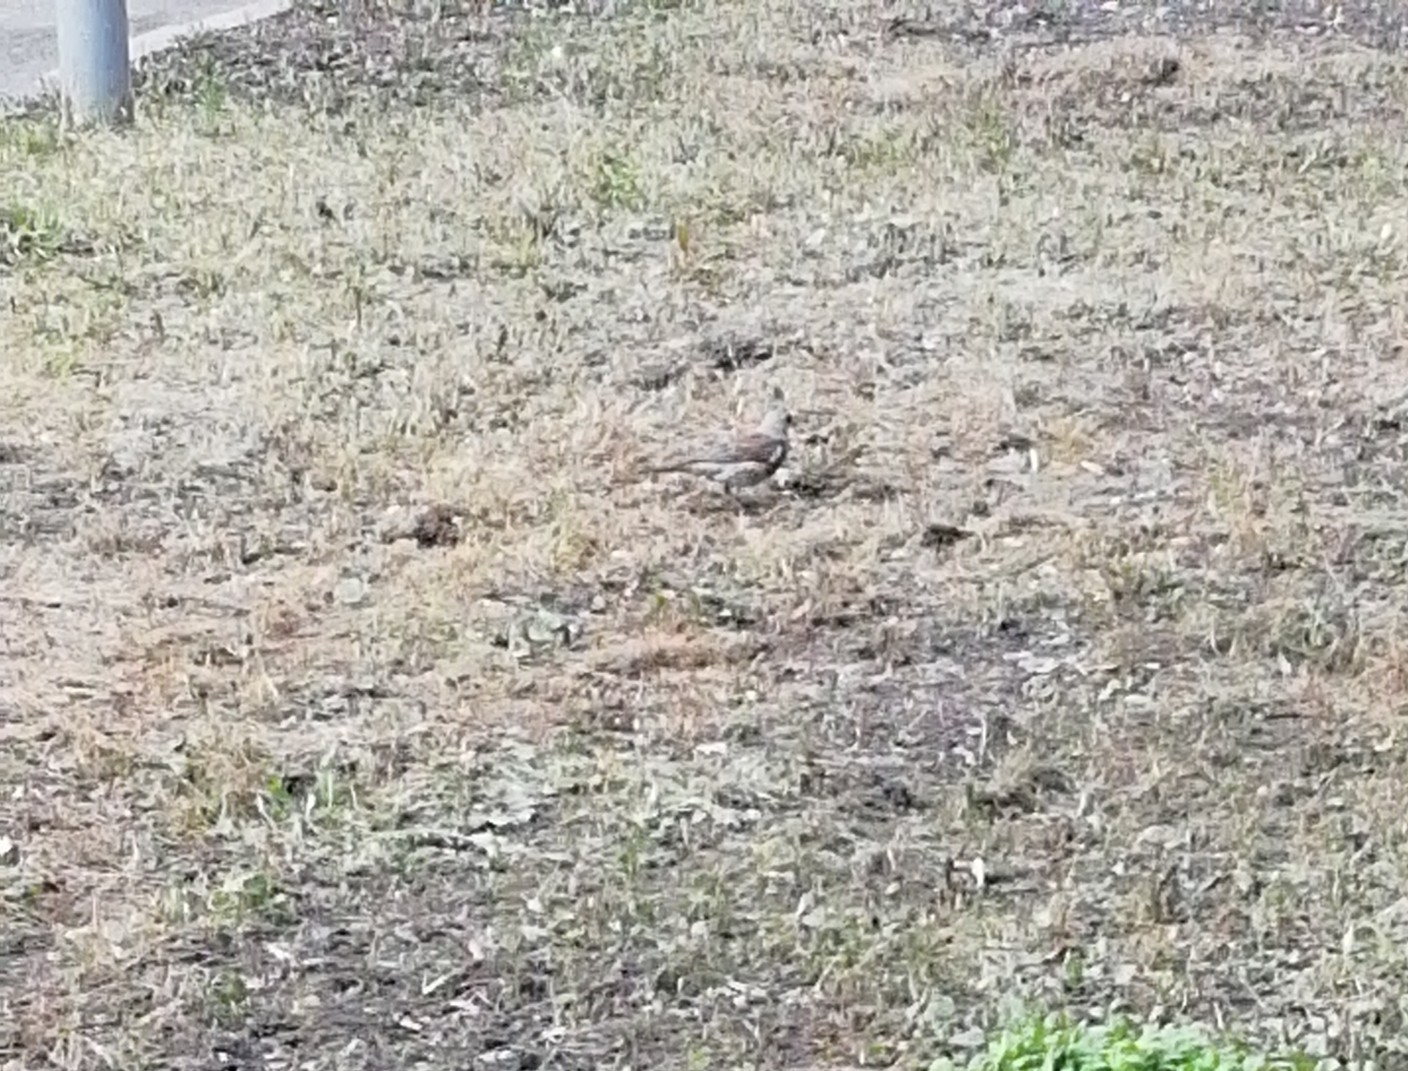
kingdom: Animalia
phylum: Chordata
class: Aves
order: Passeriformes
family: Turdidae
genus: Turdus
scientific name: Turdus pilaris
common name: Fieldfare
